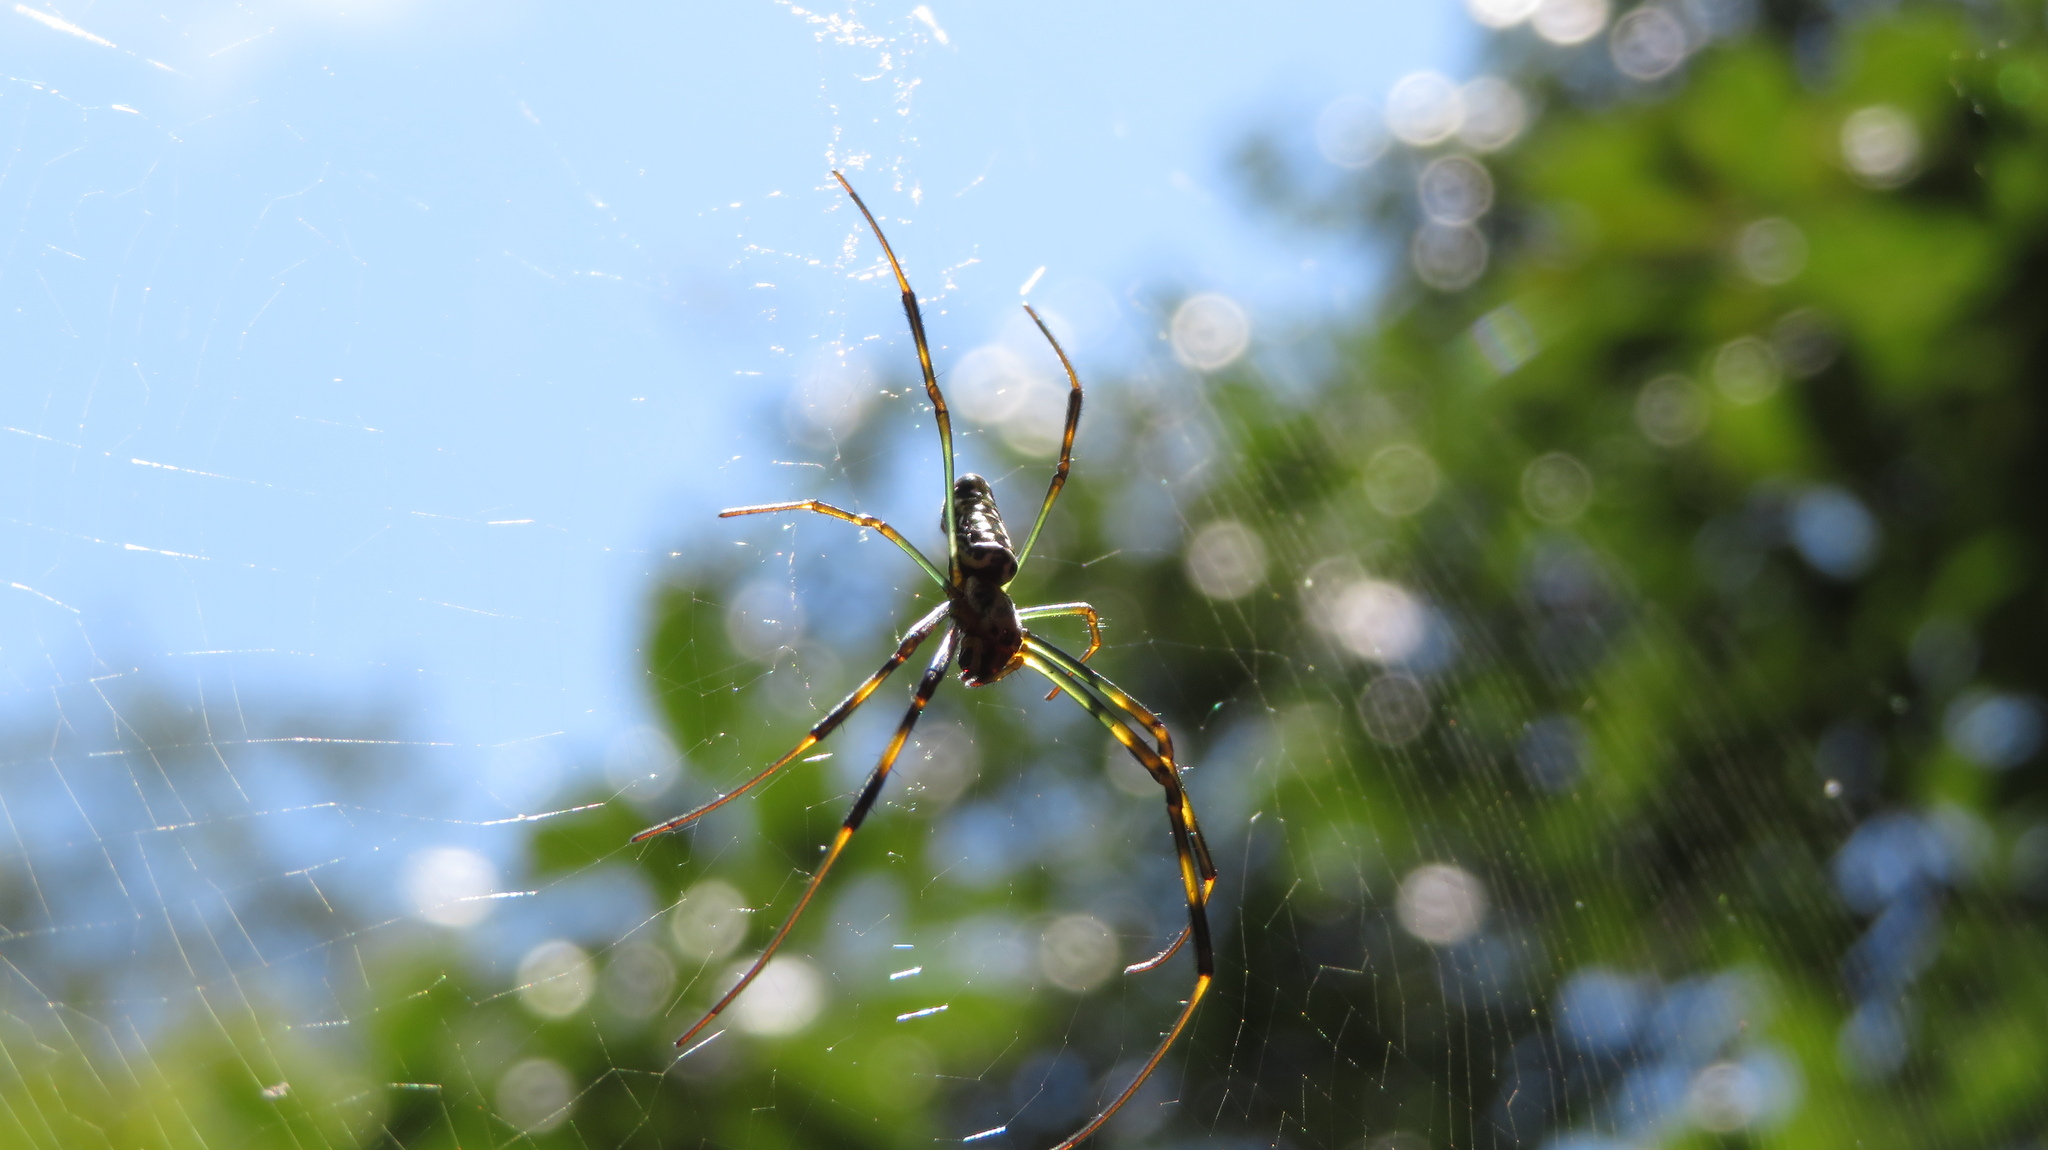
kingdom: Animalia
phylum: Arthropoda
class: Arachnida
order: Araneae
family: Araneidae
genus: Trichonephila
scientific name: Trichonephila clavata
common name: Jorō spider
